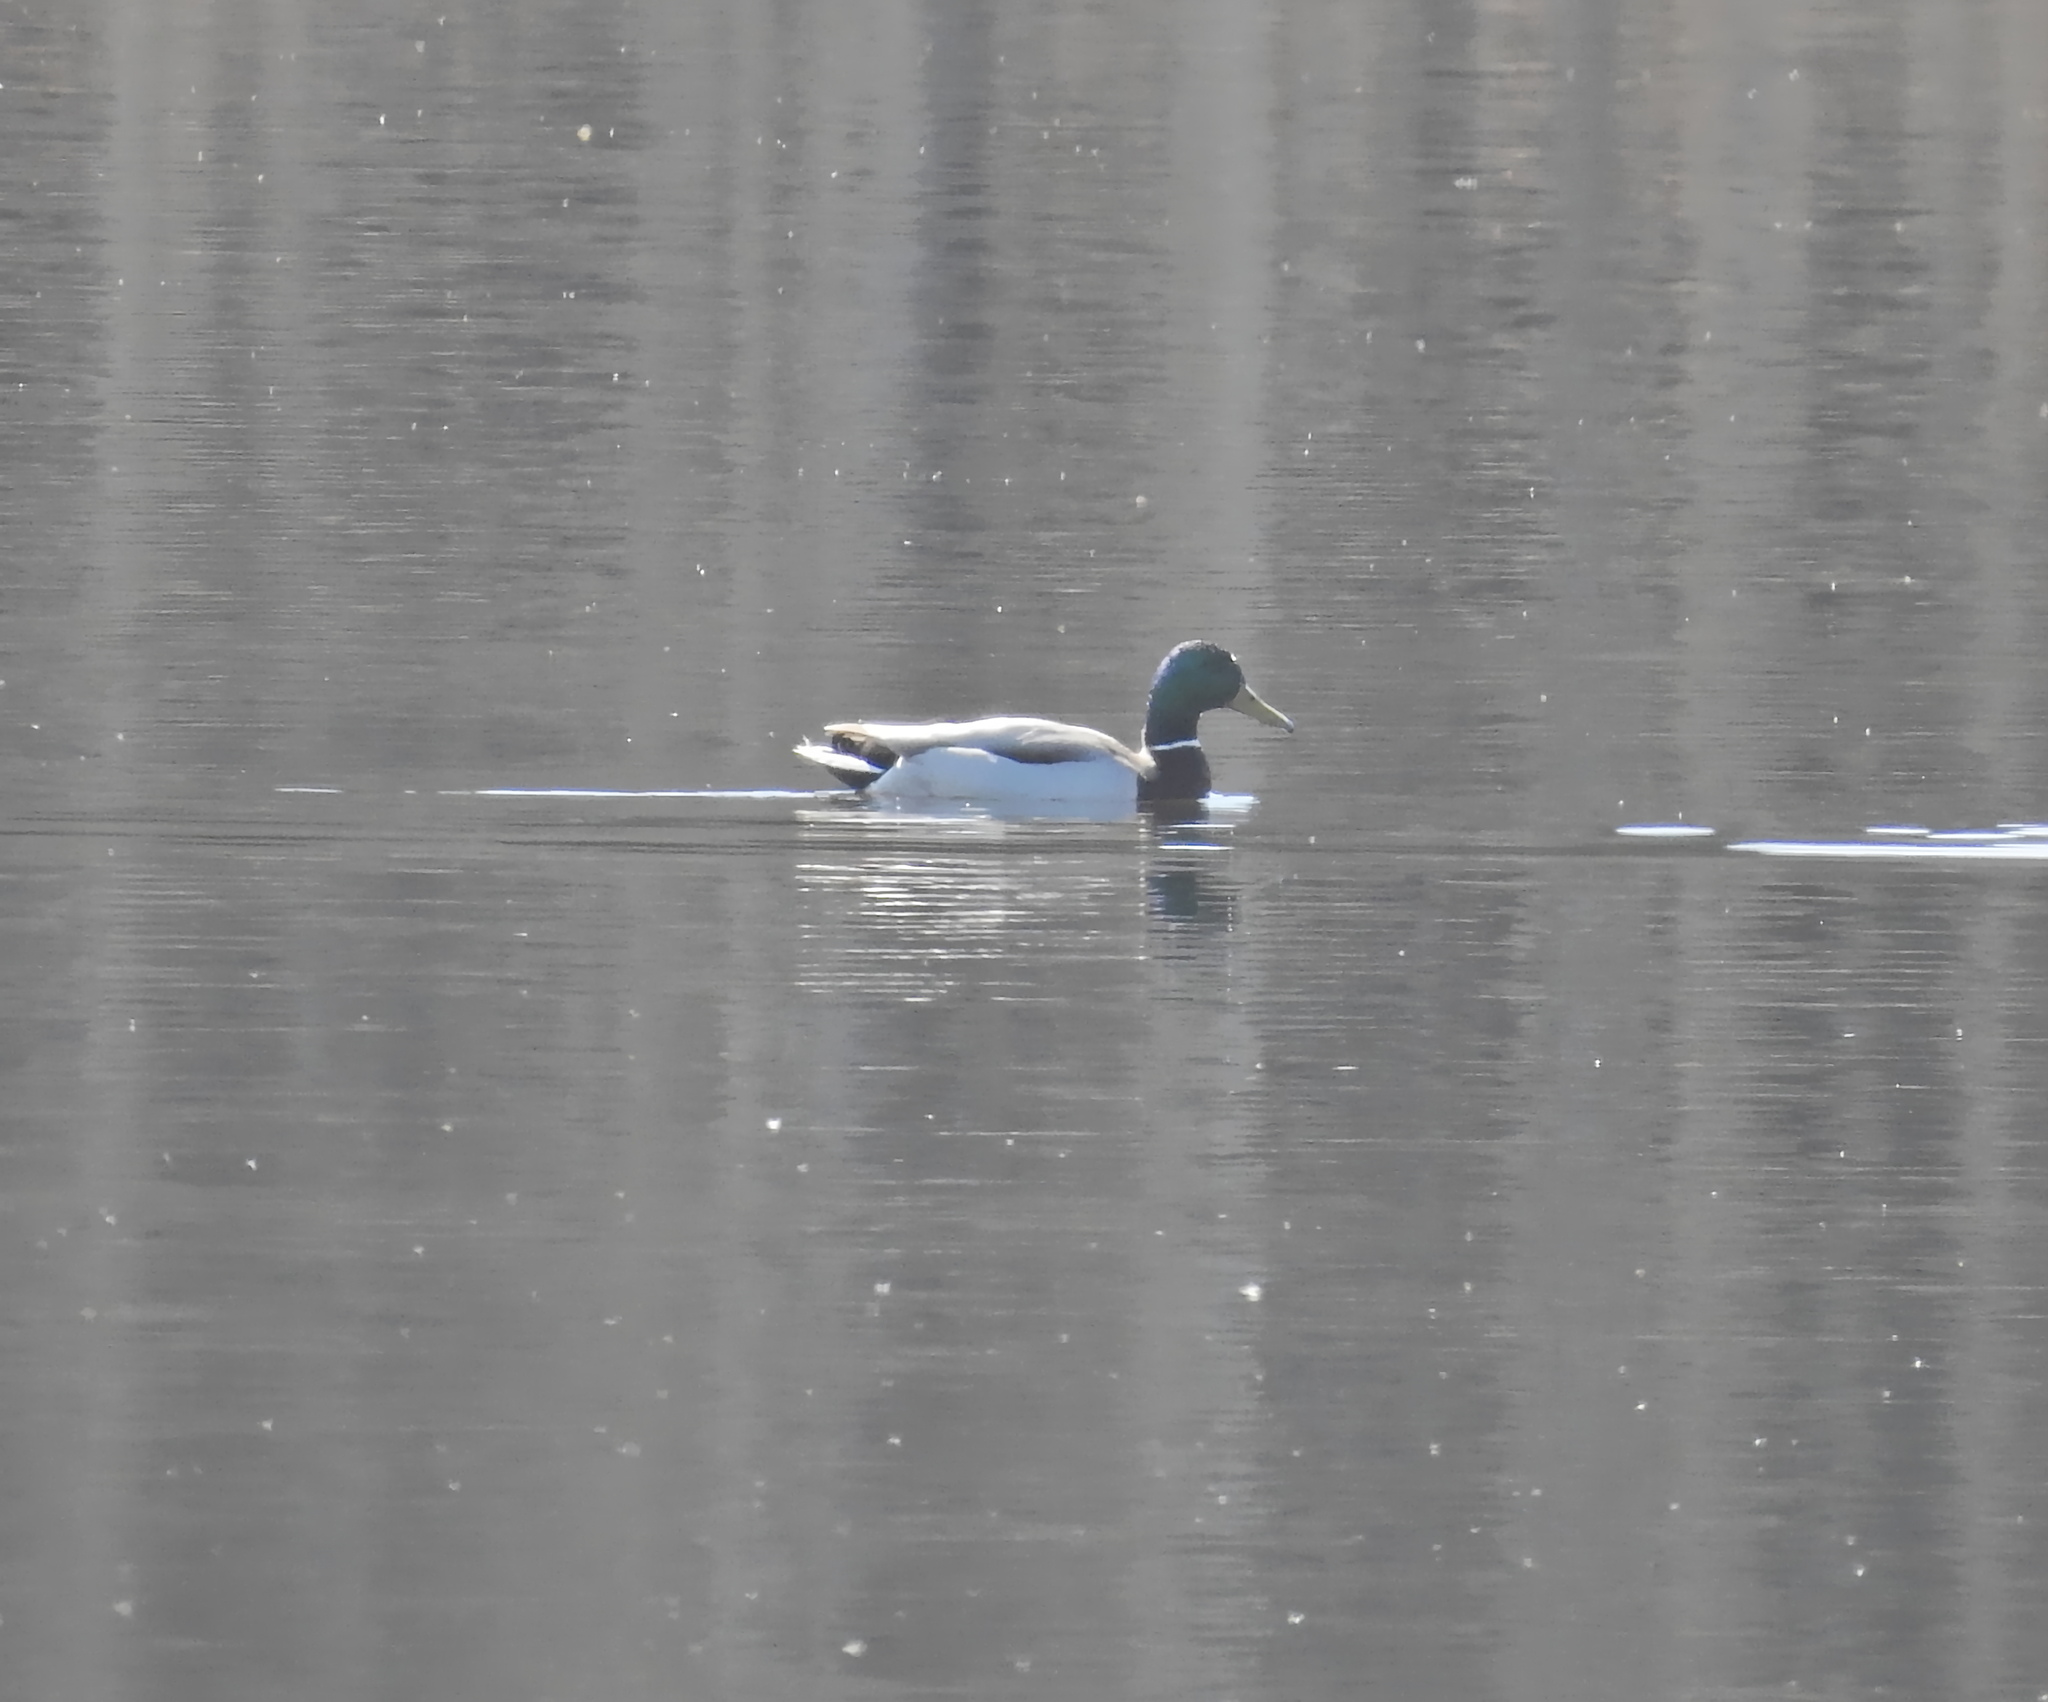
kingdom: Animalia
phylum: Chordata
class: Aves
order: Anseriformes
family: Anatidae
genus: Anas
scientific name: Anas platyrhynchos
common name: Mallard
